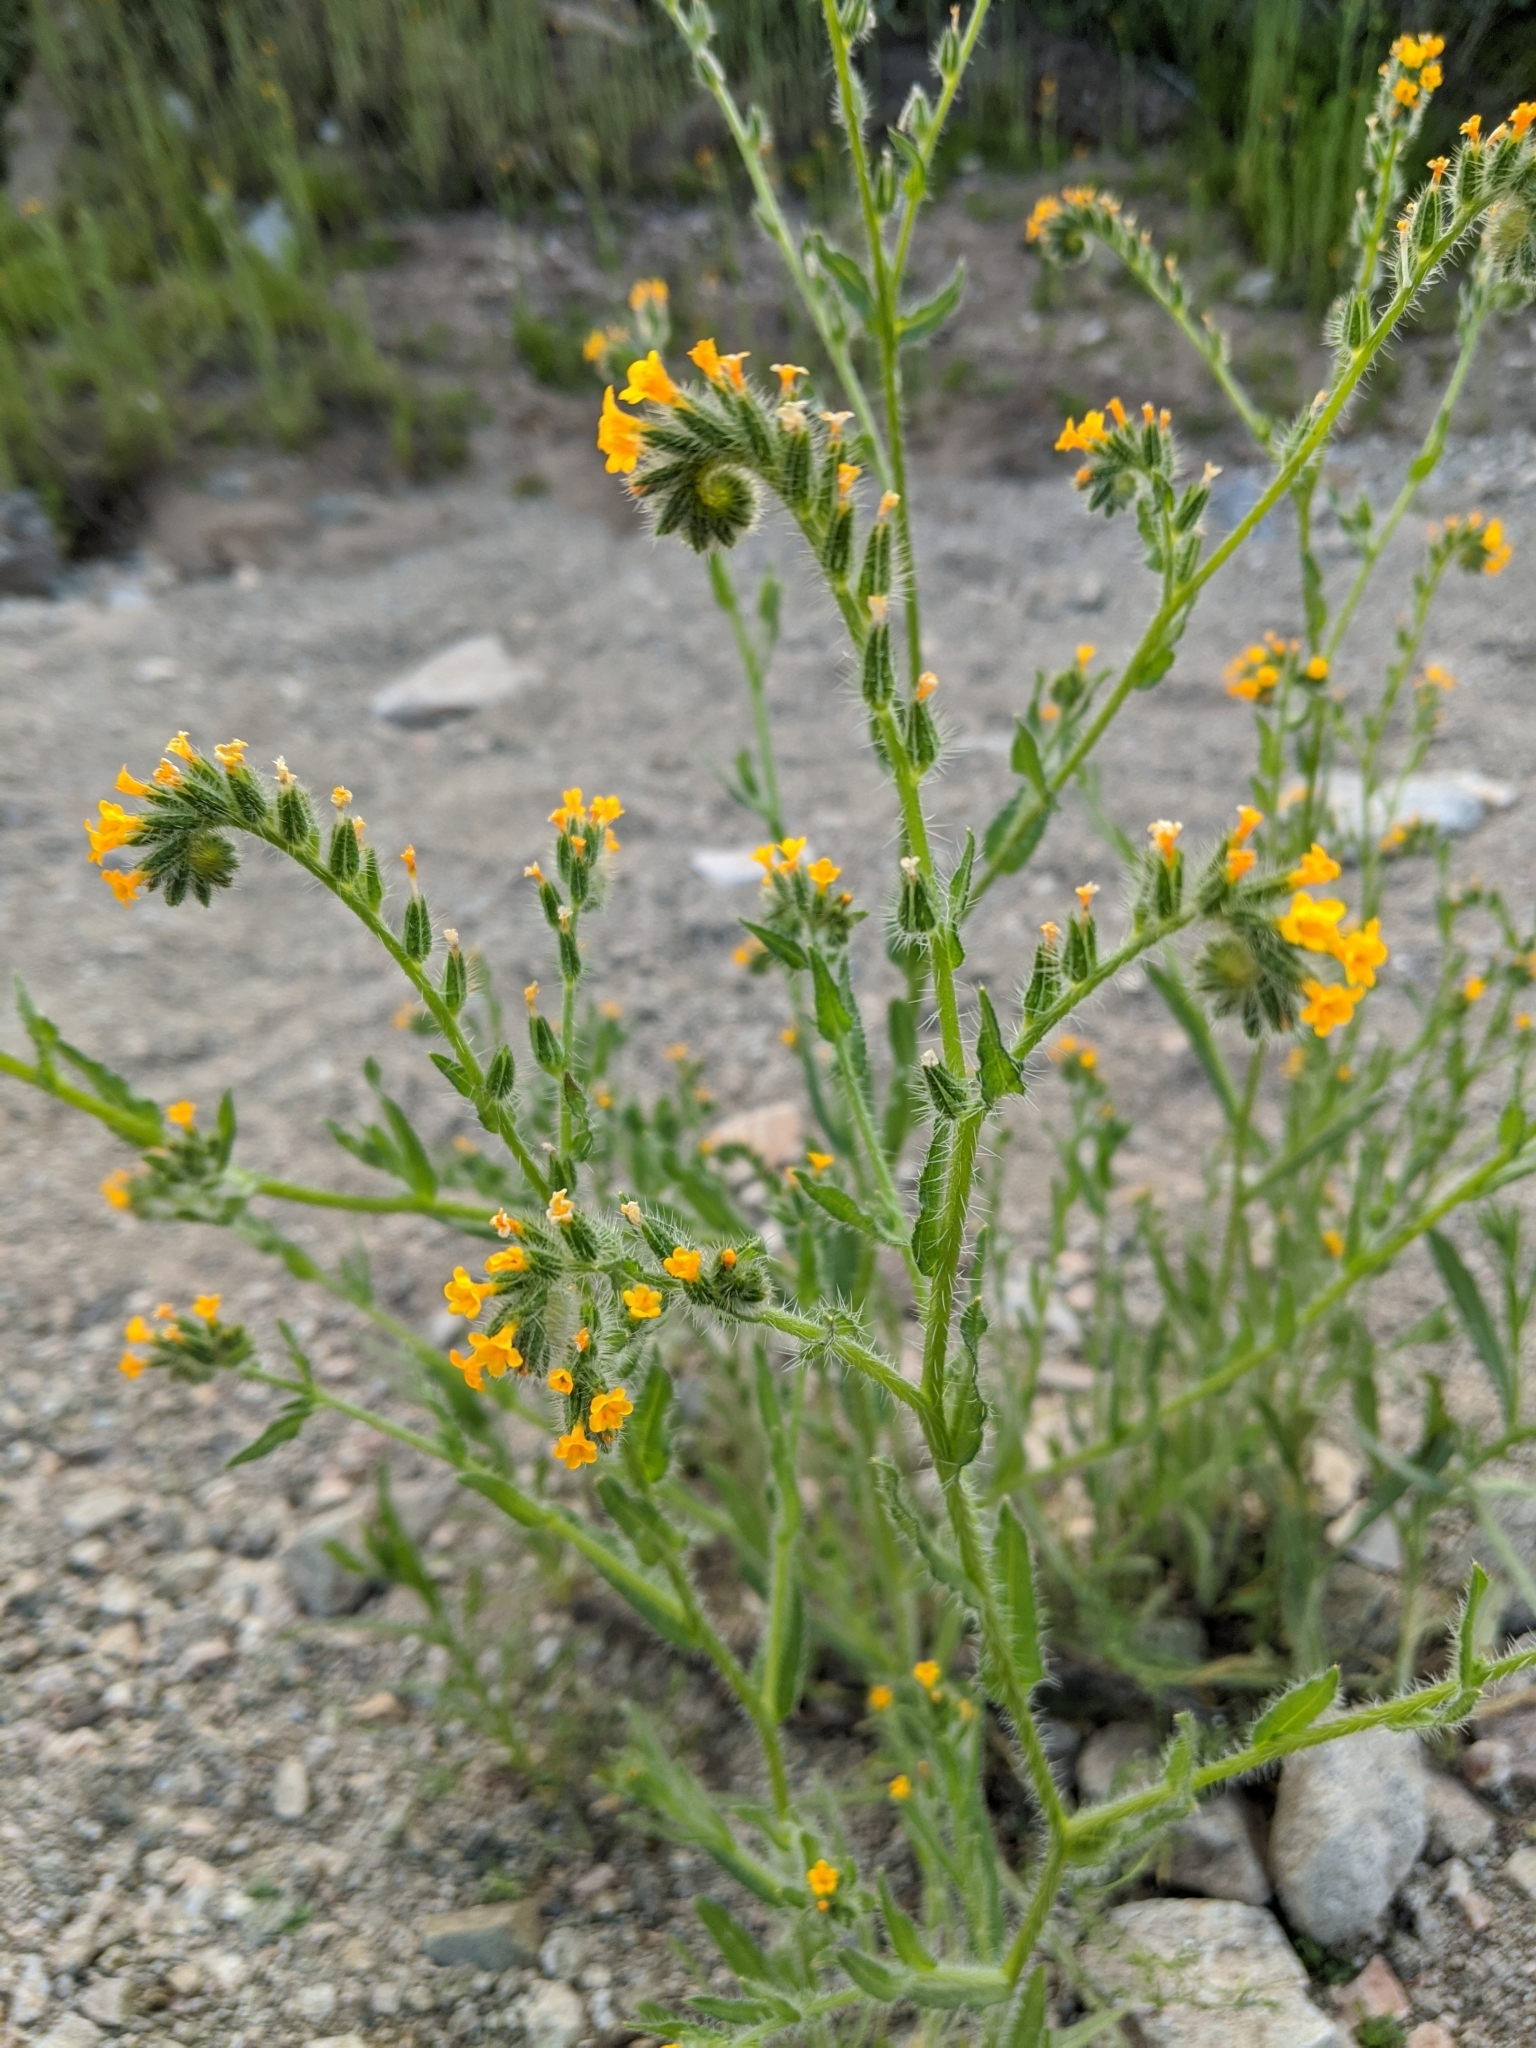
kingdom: Plantae
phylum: Tracheophyta
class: Magnoliopsida
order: Boraginales
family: Boraginaceae
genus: Amsinckia
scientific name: Amsinckia menziesii
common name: Menzies' fiddleneck
